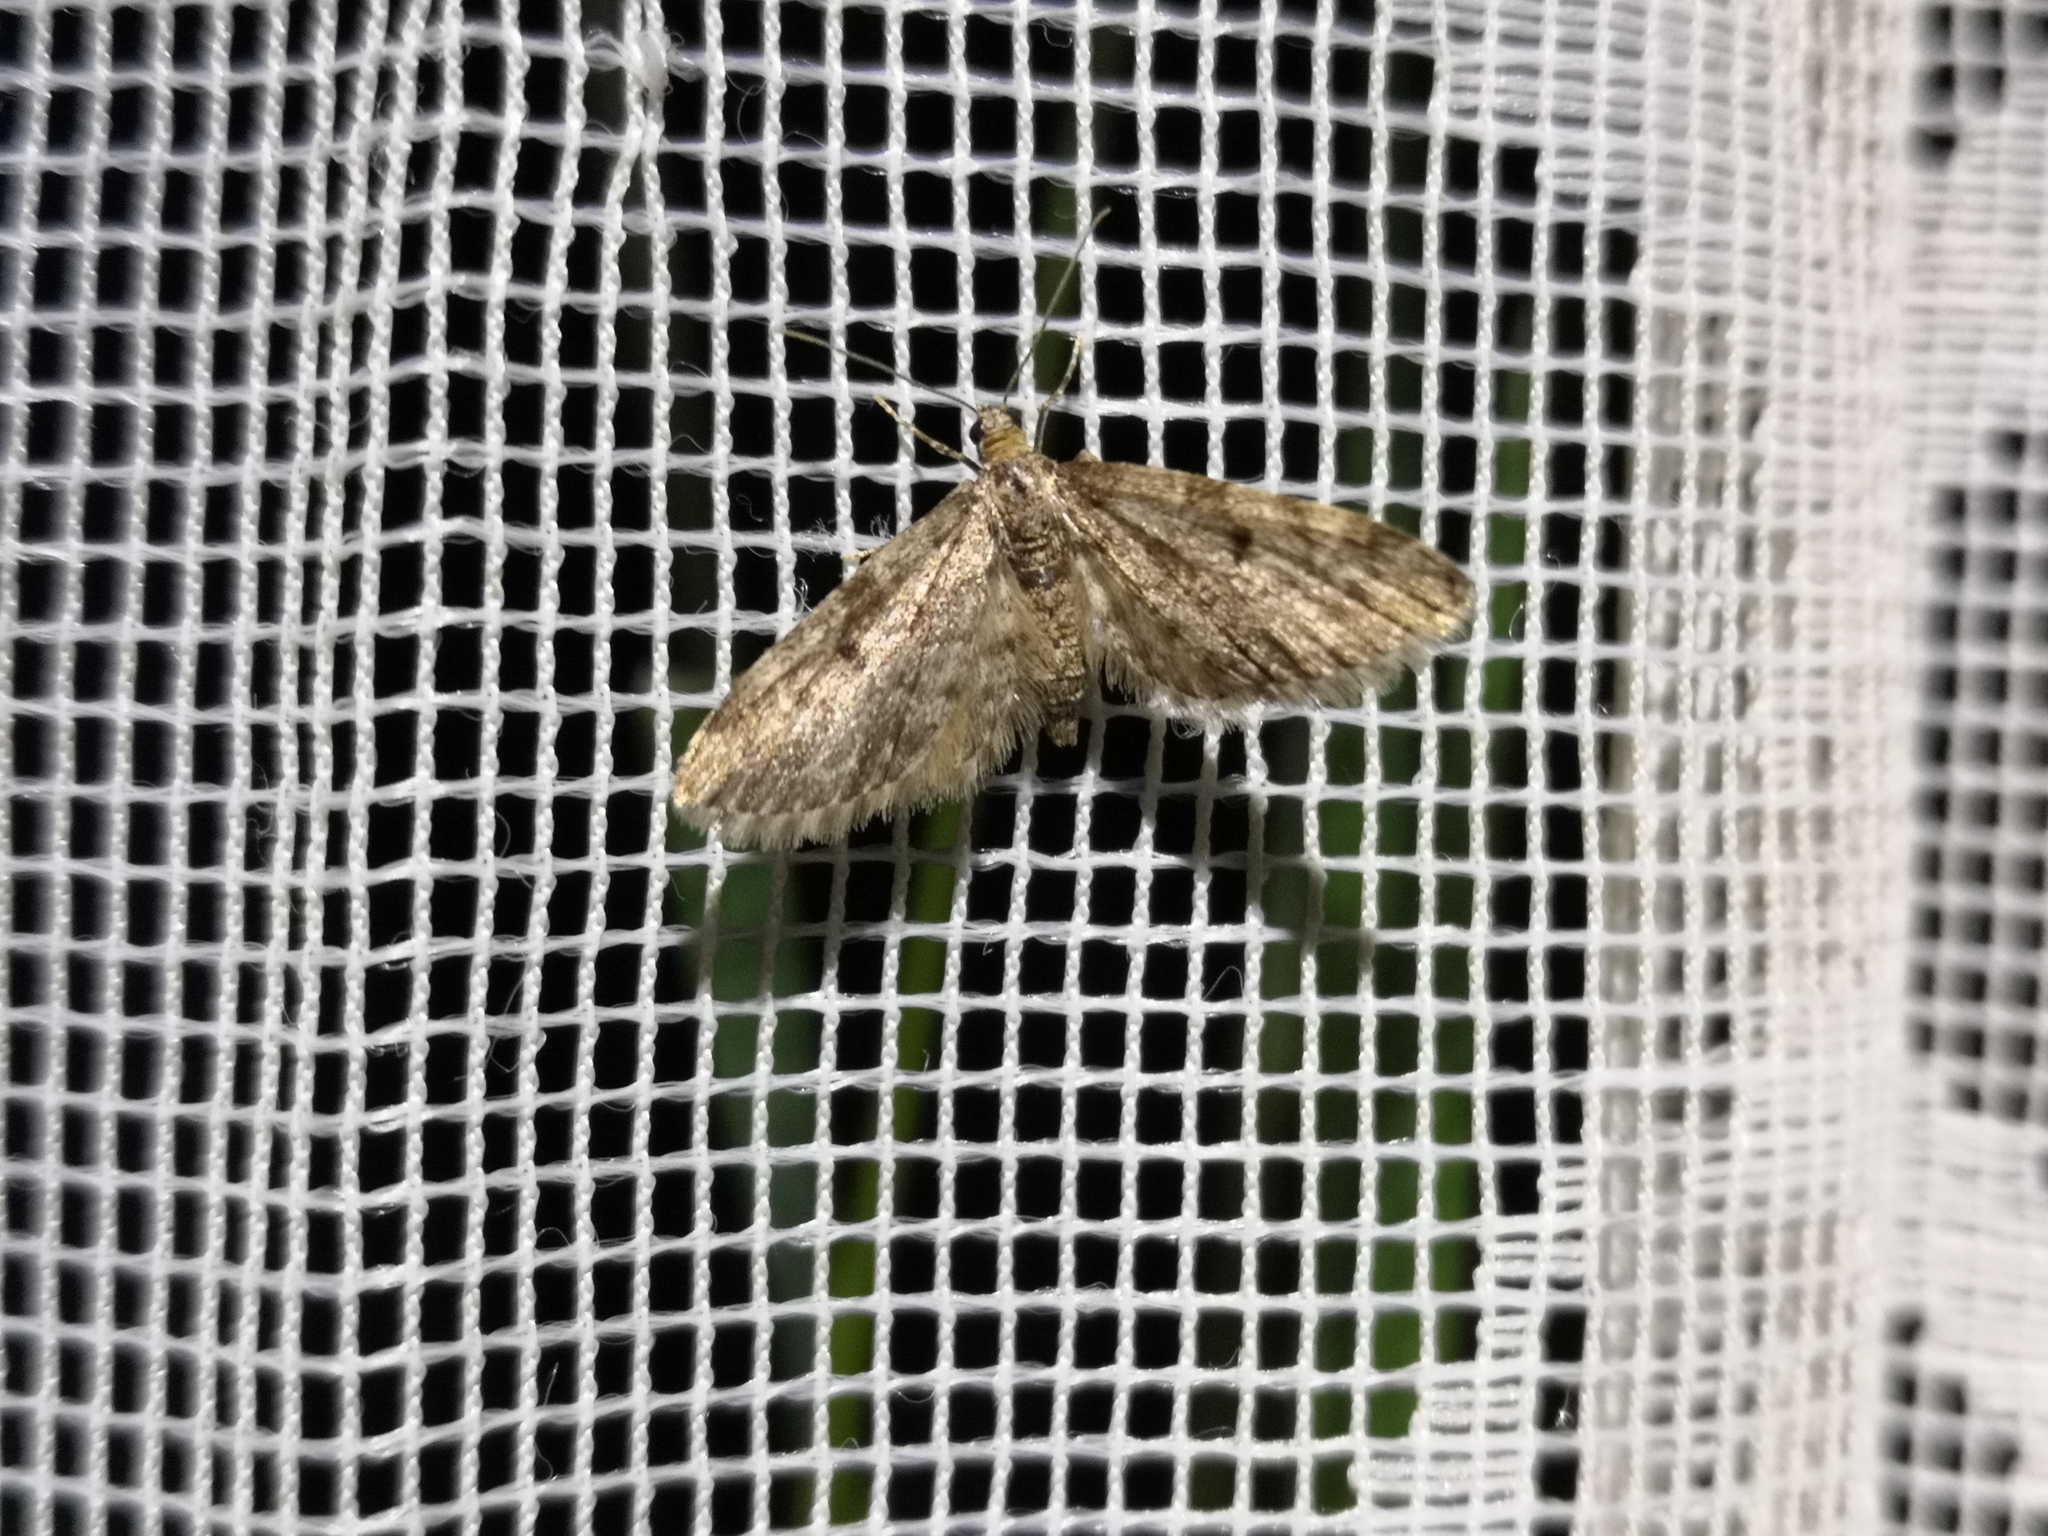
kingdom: Animalia
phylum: Arthropoda
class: Insecta
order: Lepidoptera
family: Geometridae
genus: Eupithecia
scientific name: Eupithecia tantillaria
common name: Dwarf pug
